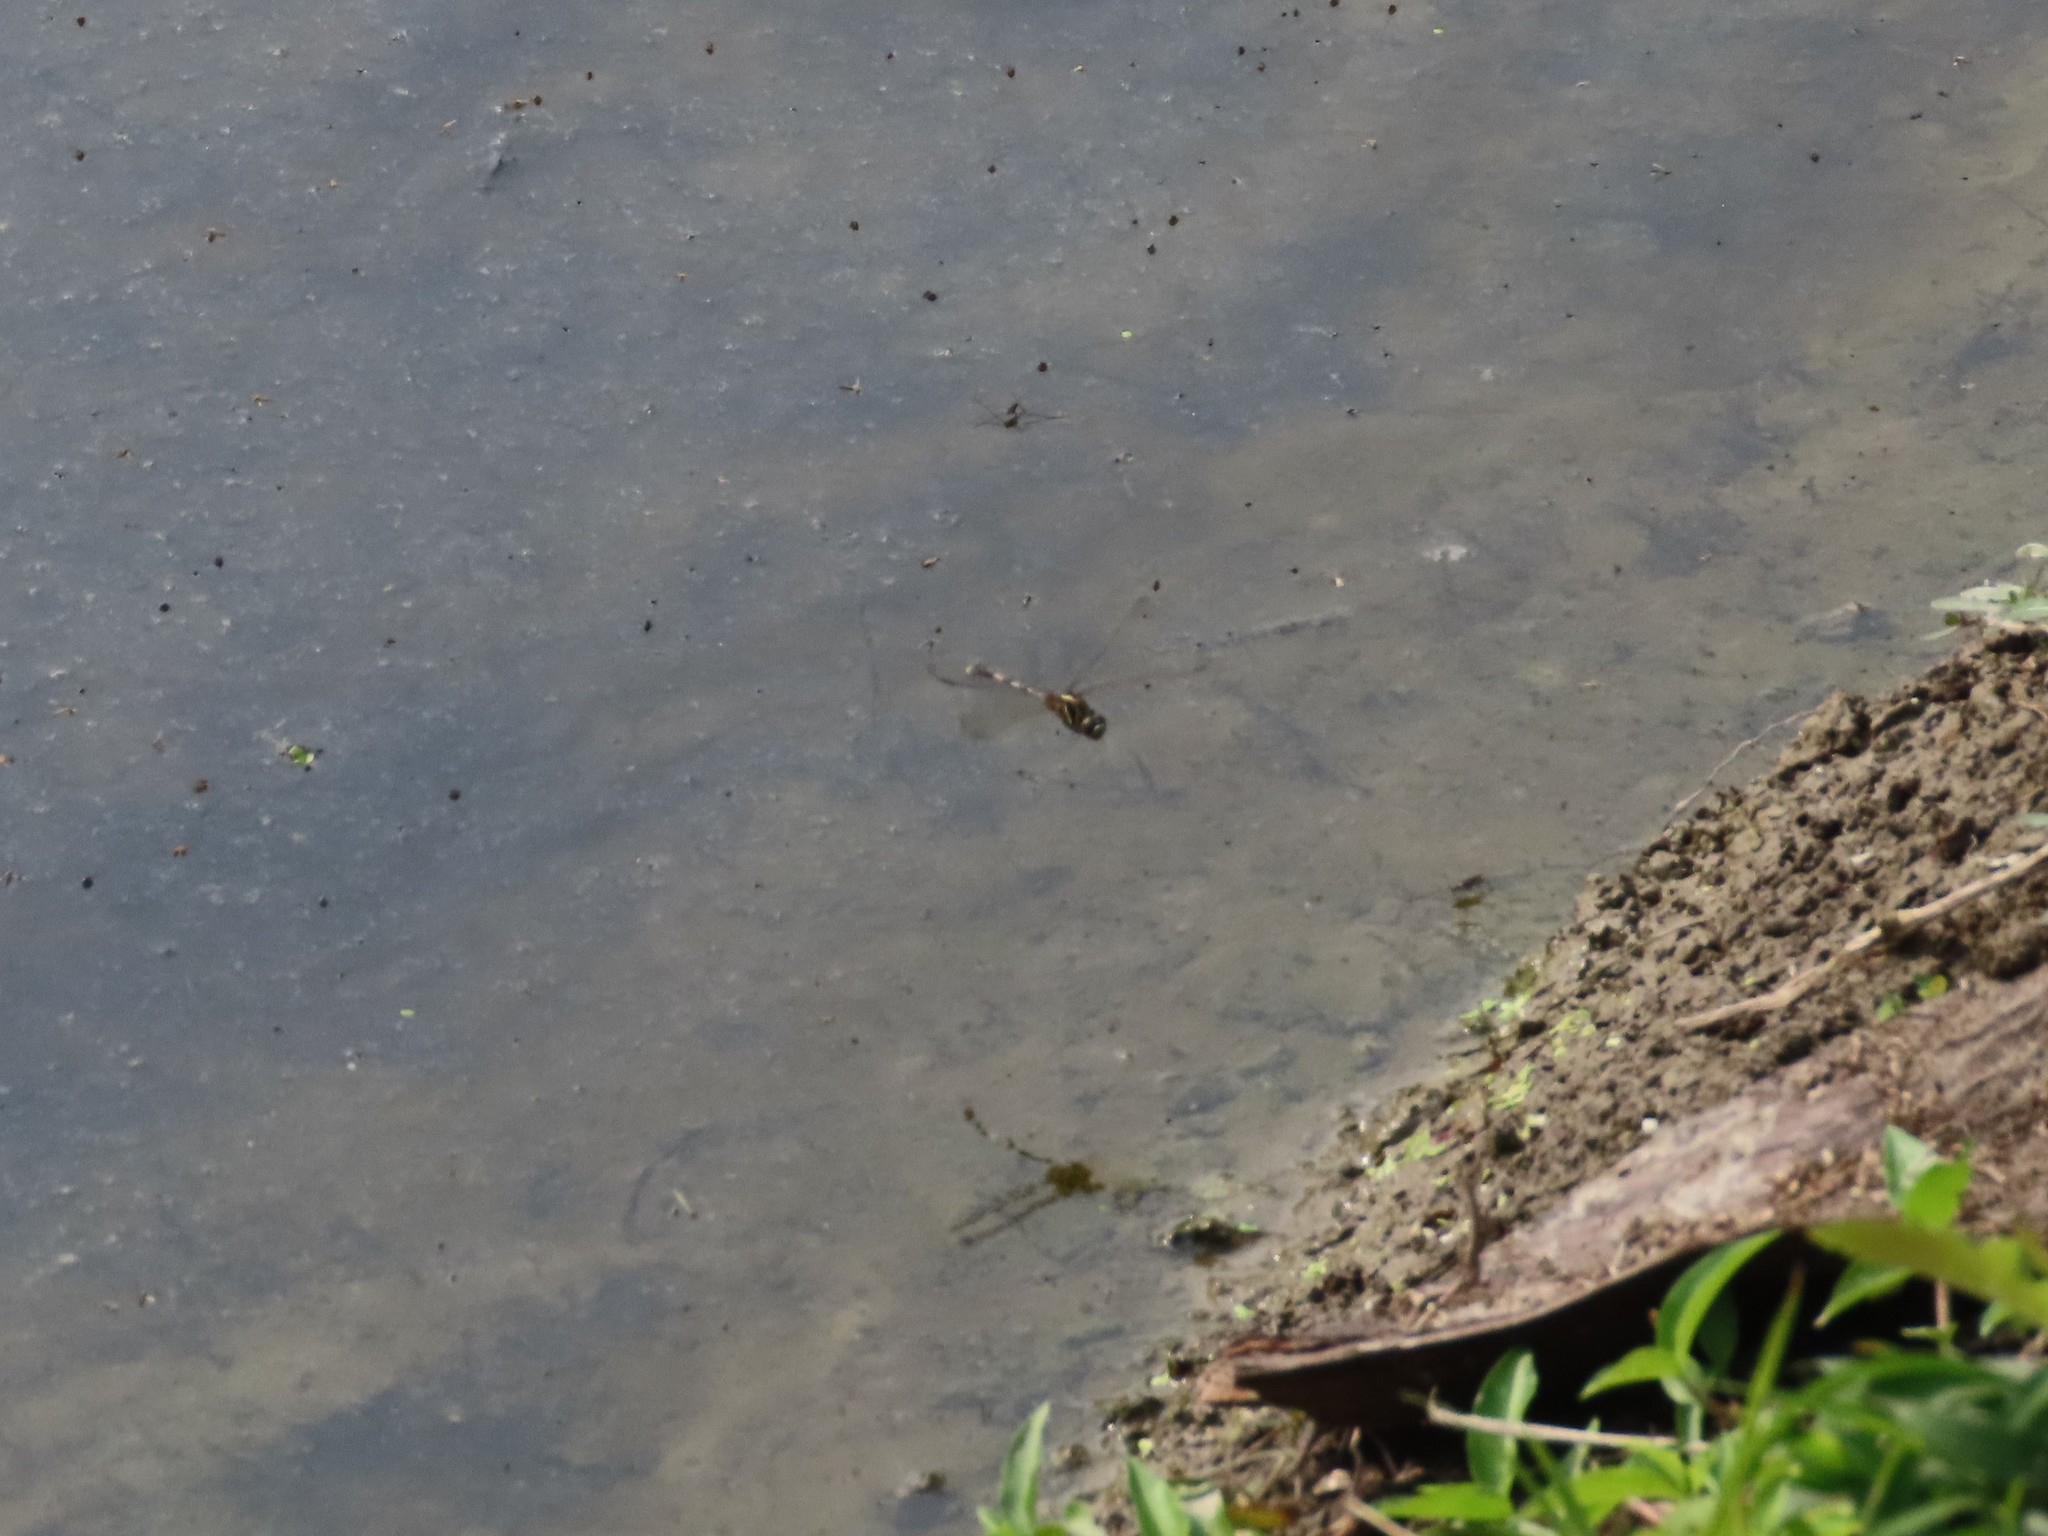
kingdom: Animalia
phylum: Arthropoda
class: Insecta
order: Odonata
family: Libellulidae
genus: Orthetrum
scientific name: Orthetrum sabina
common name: Slender skimmer
